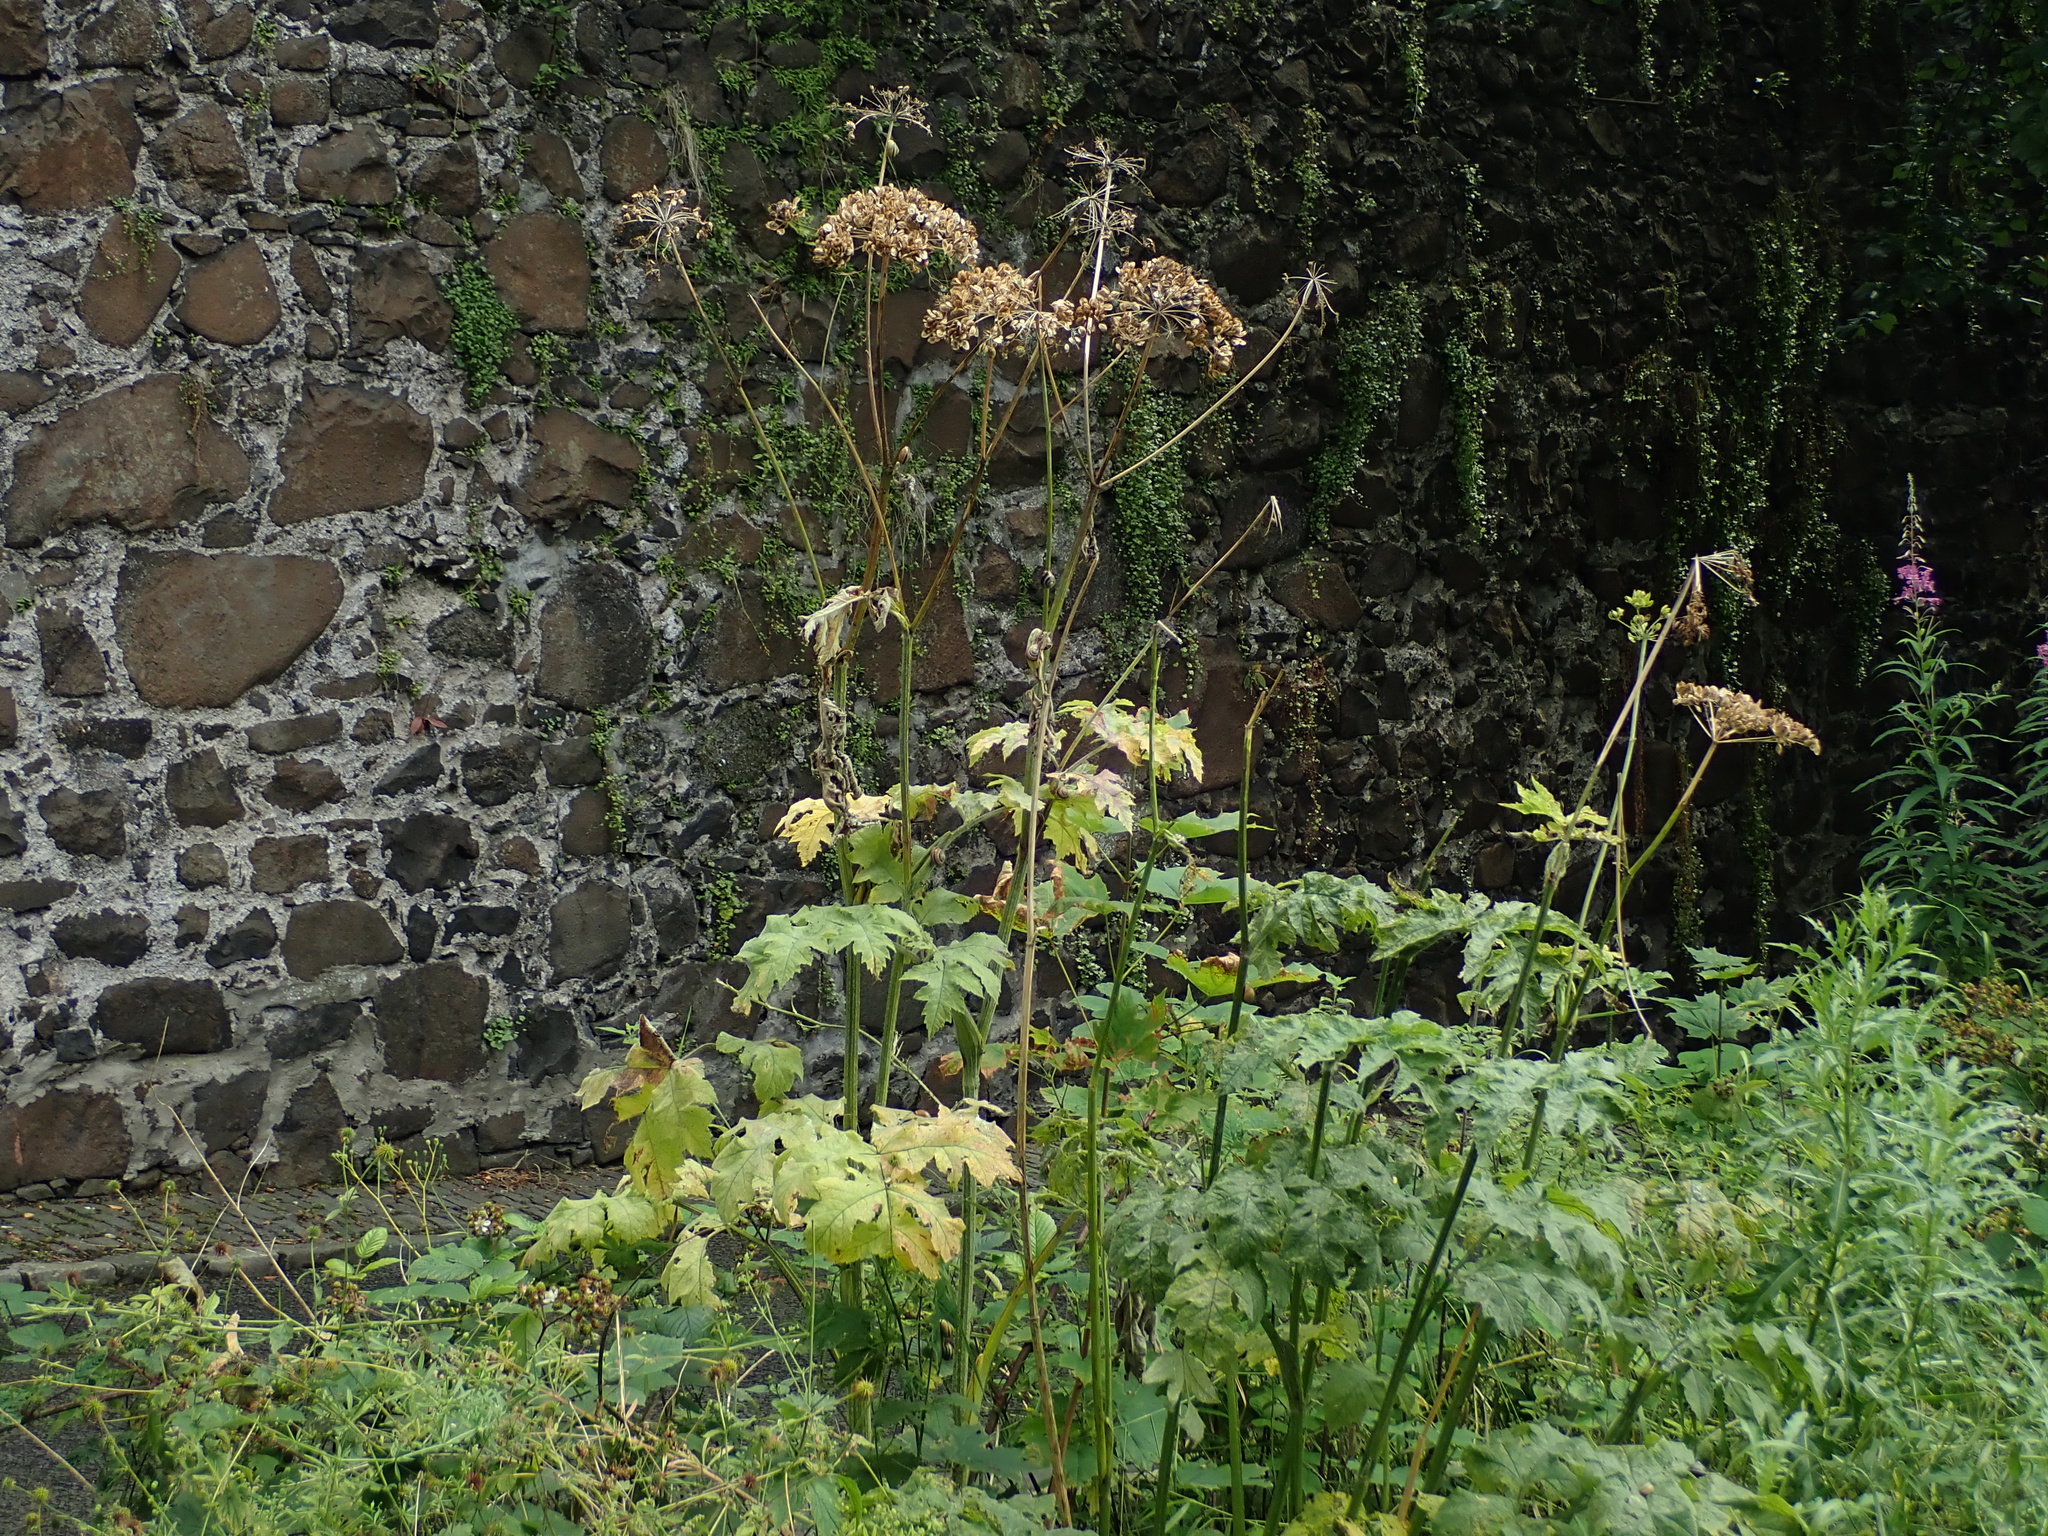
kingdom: Plantae
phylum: Tracheophyta
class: Magnoliopsida
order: Apiales
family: Apiaceae
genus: Heracleum
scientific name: Heracleum sphondylium
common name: Hogweed
